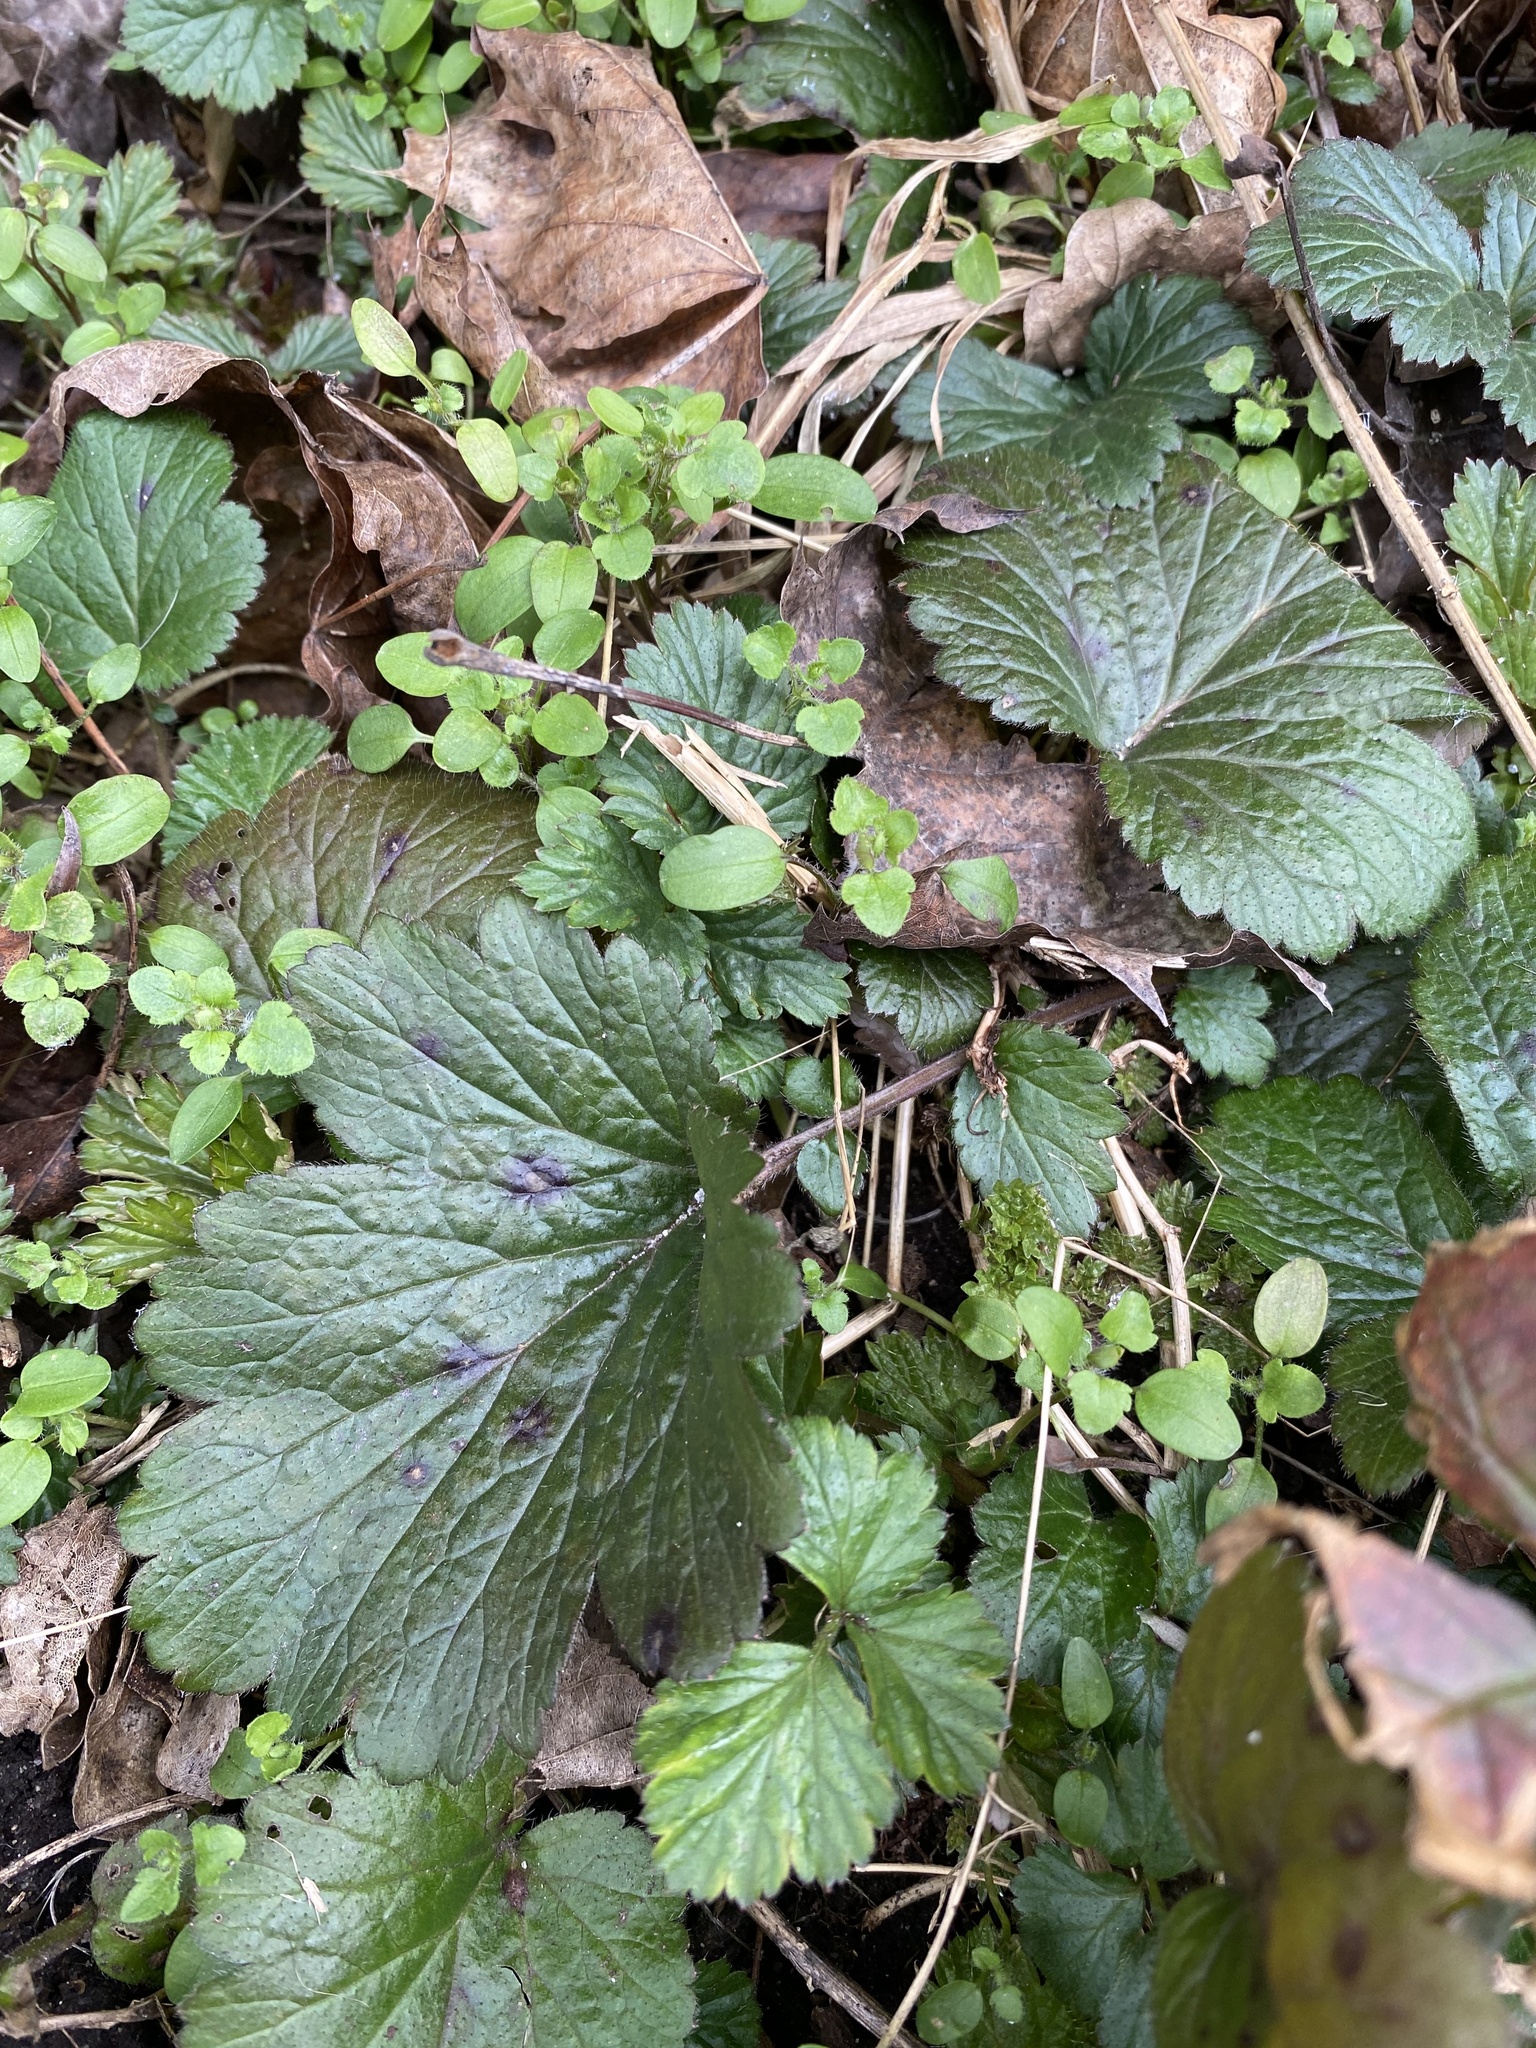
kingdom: Plantae
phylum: Tracheophyta
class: Magnoliopsida
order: Rosales
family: Rosaceae
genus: Geum
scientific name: Geum urbanum
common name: Wood avens
